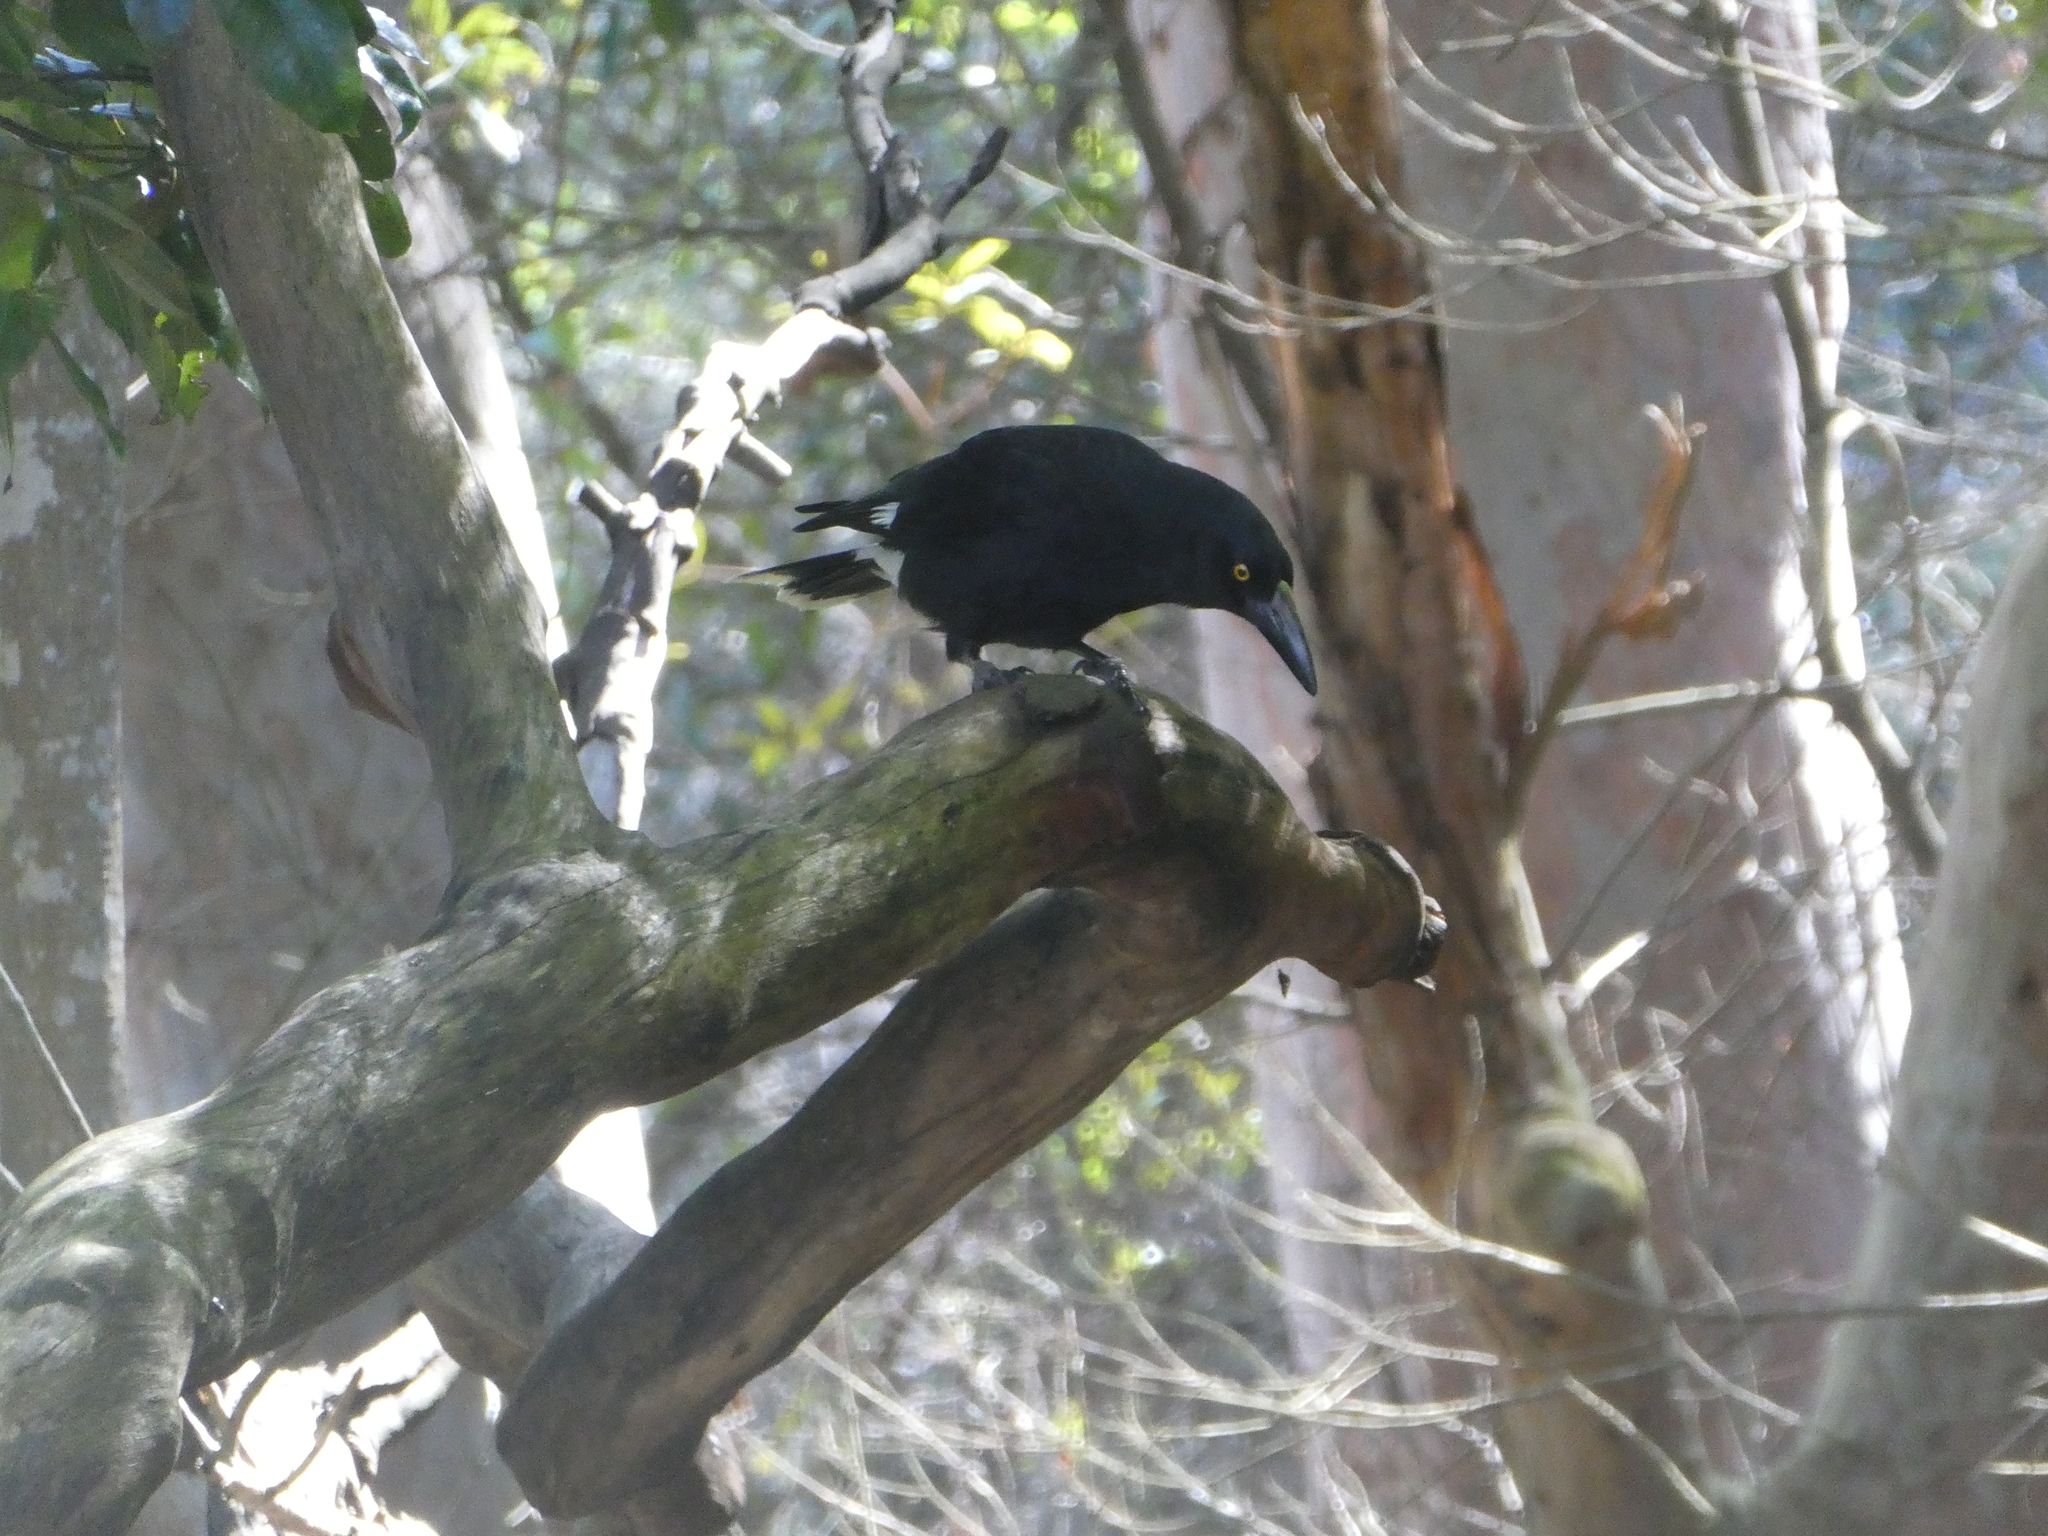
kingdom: Animalia
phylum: Chordata
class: Aves
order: Passeriformes
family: Cracticidae
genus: Strepera
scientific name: Strepera graculina
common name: Pied currawong
